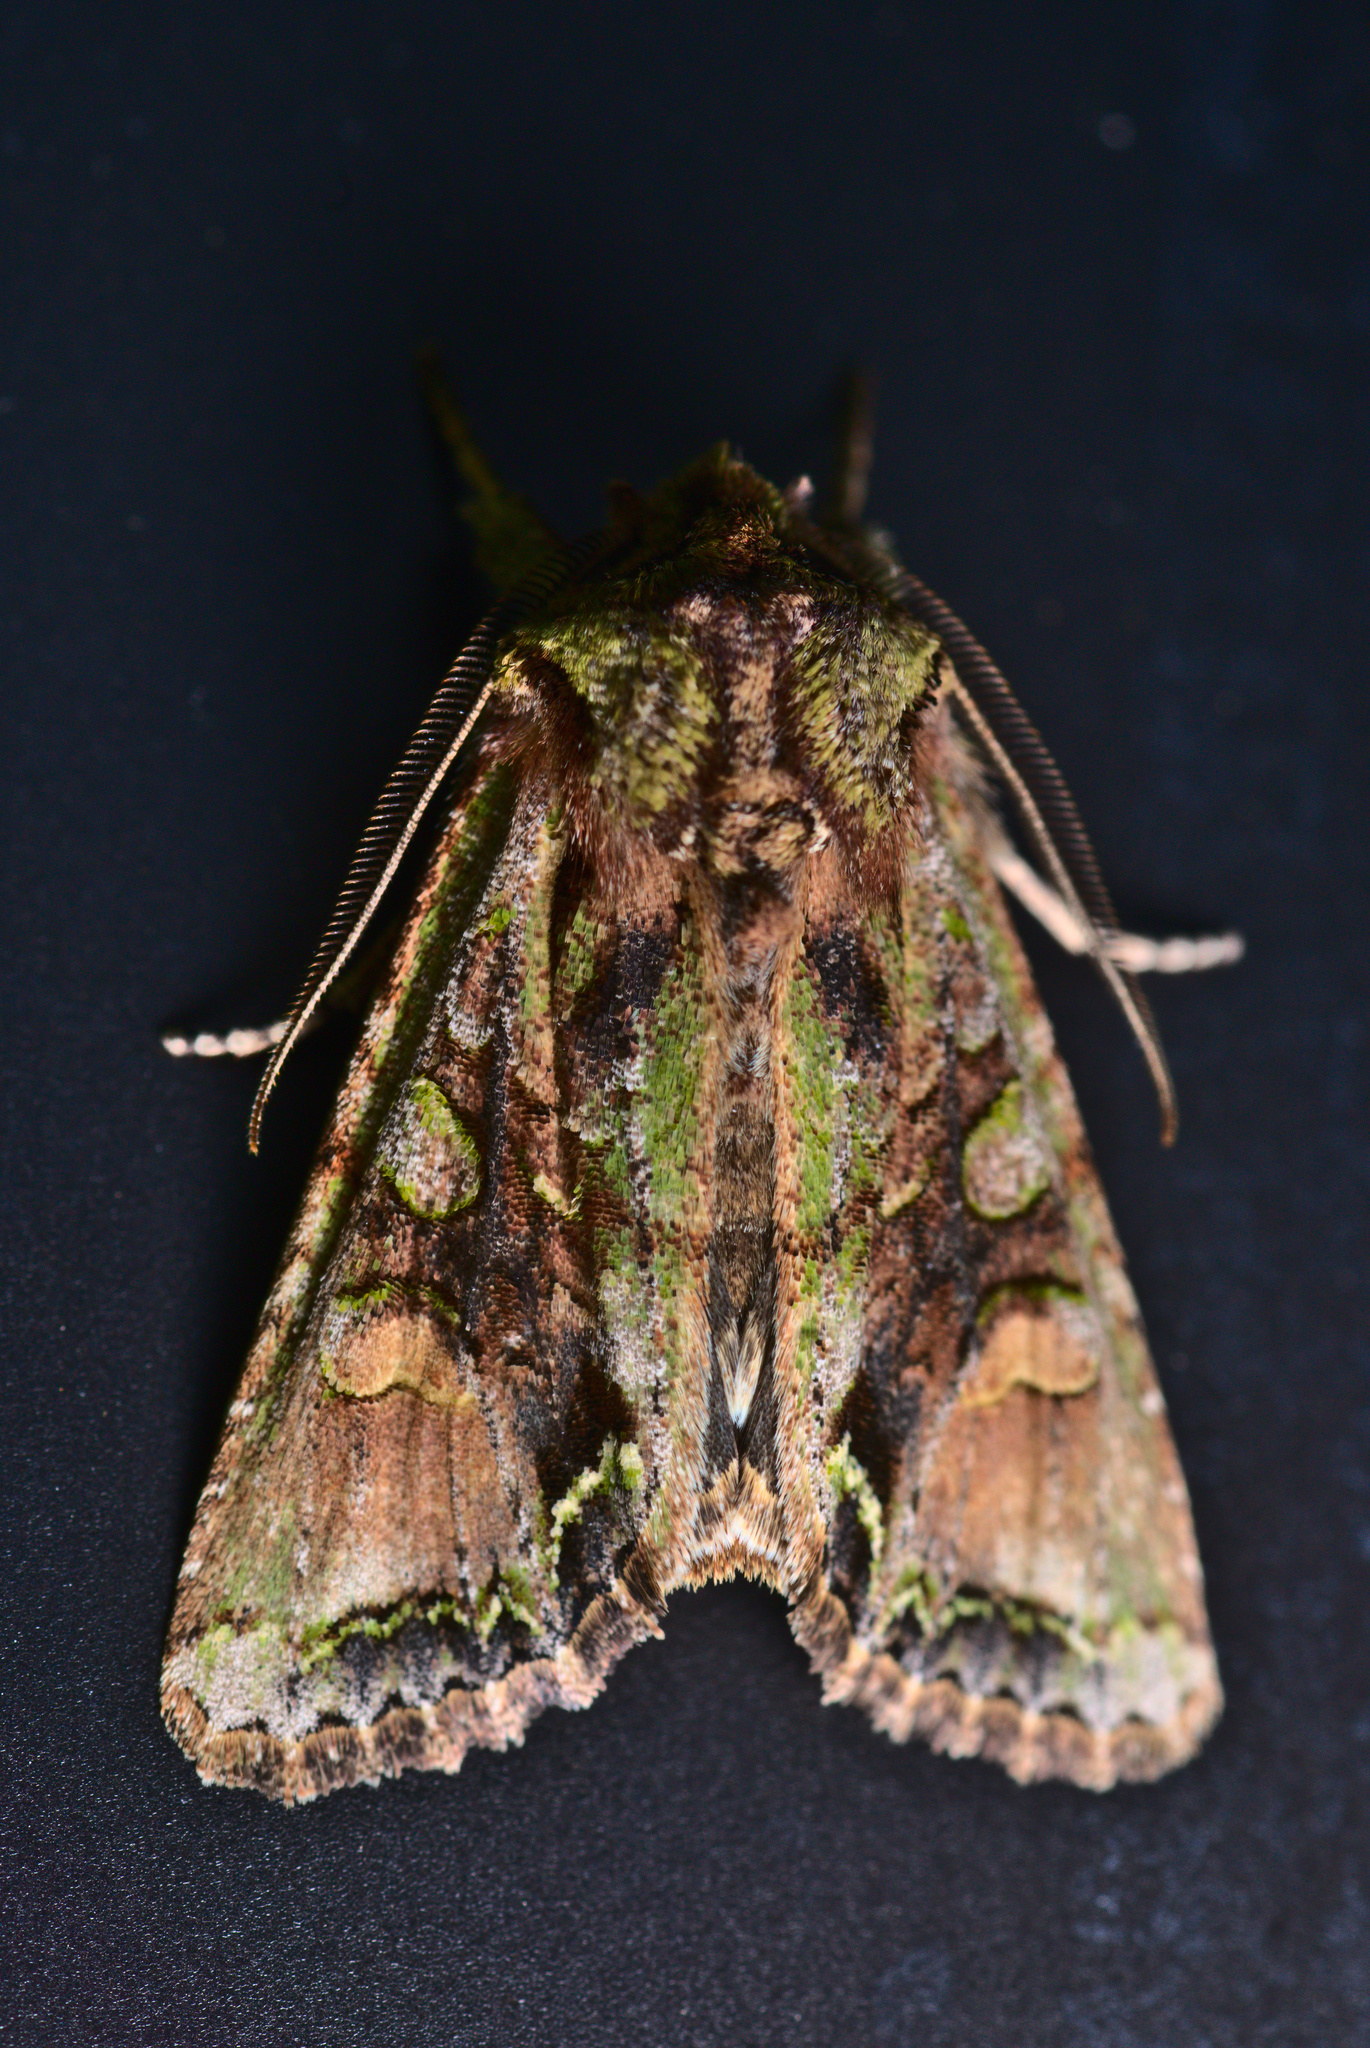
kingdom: Animalia
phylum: Arthropoda
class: Insecta
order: Lepidoptera
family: Noctuidae
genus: Ichneutica
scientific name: Ichneutica insignis
